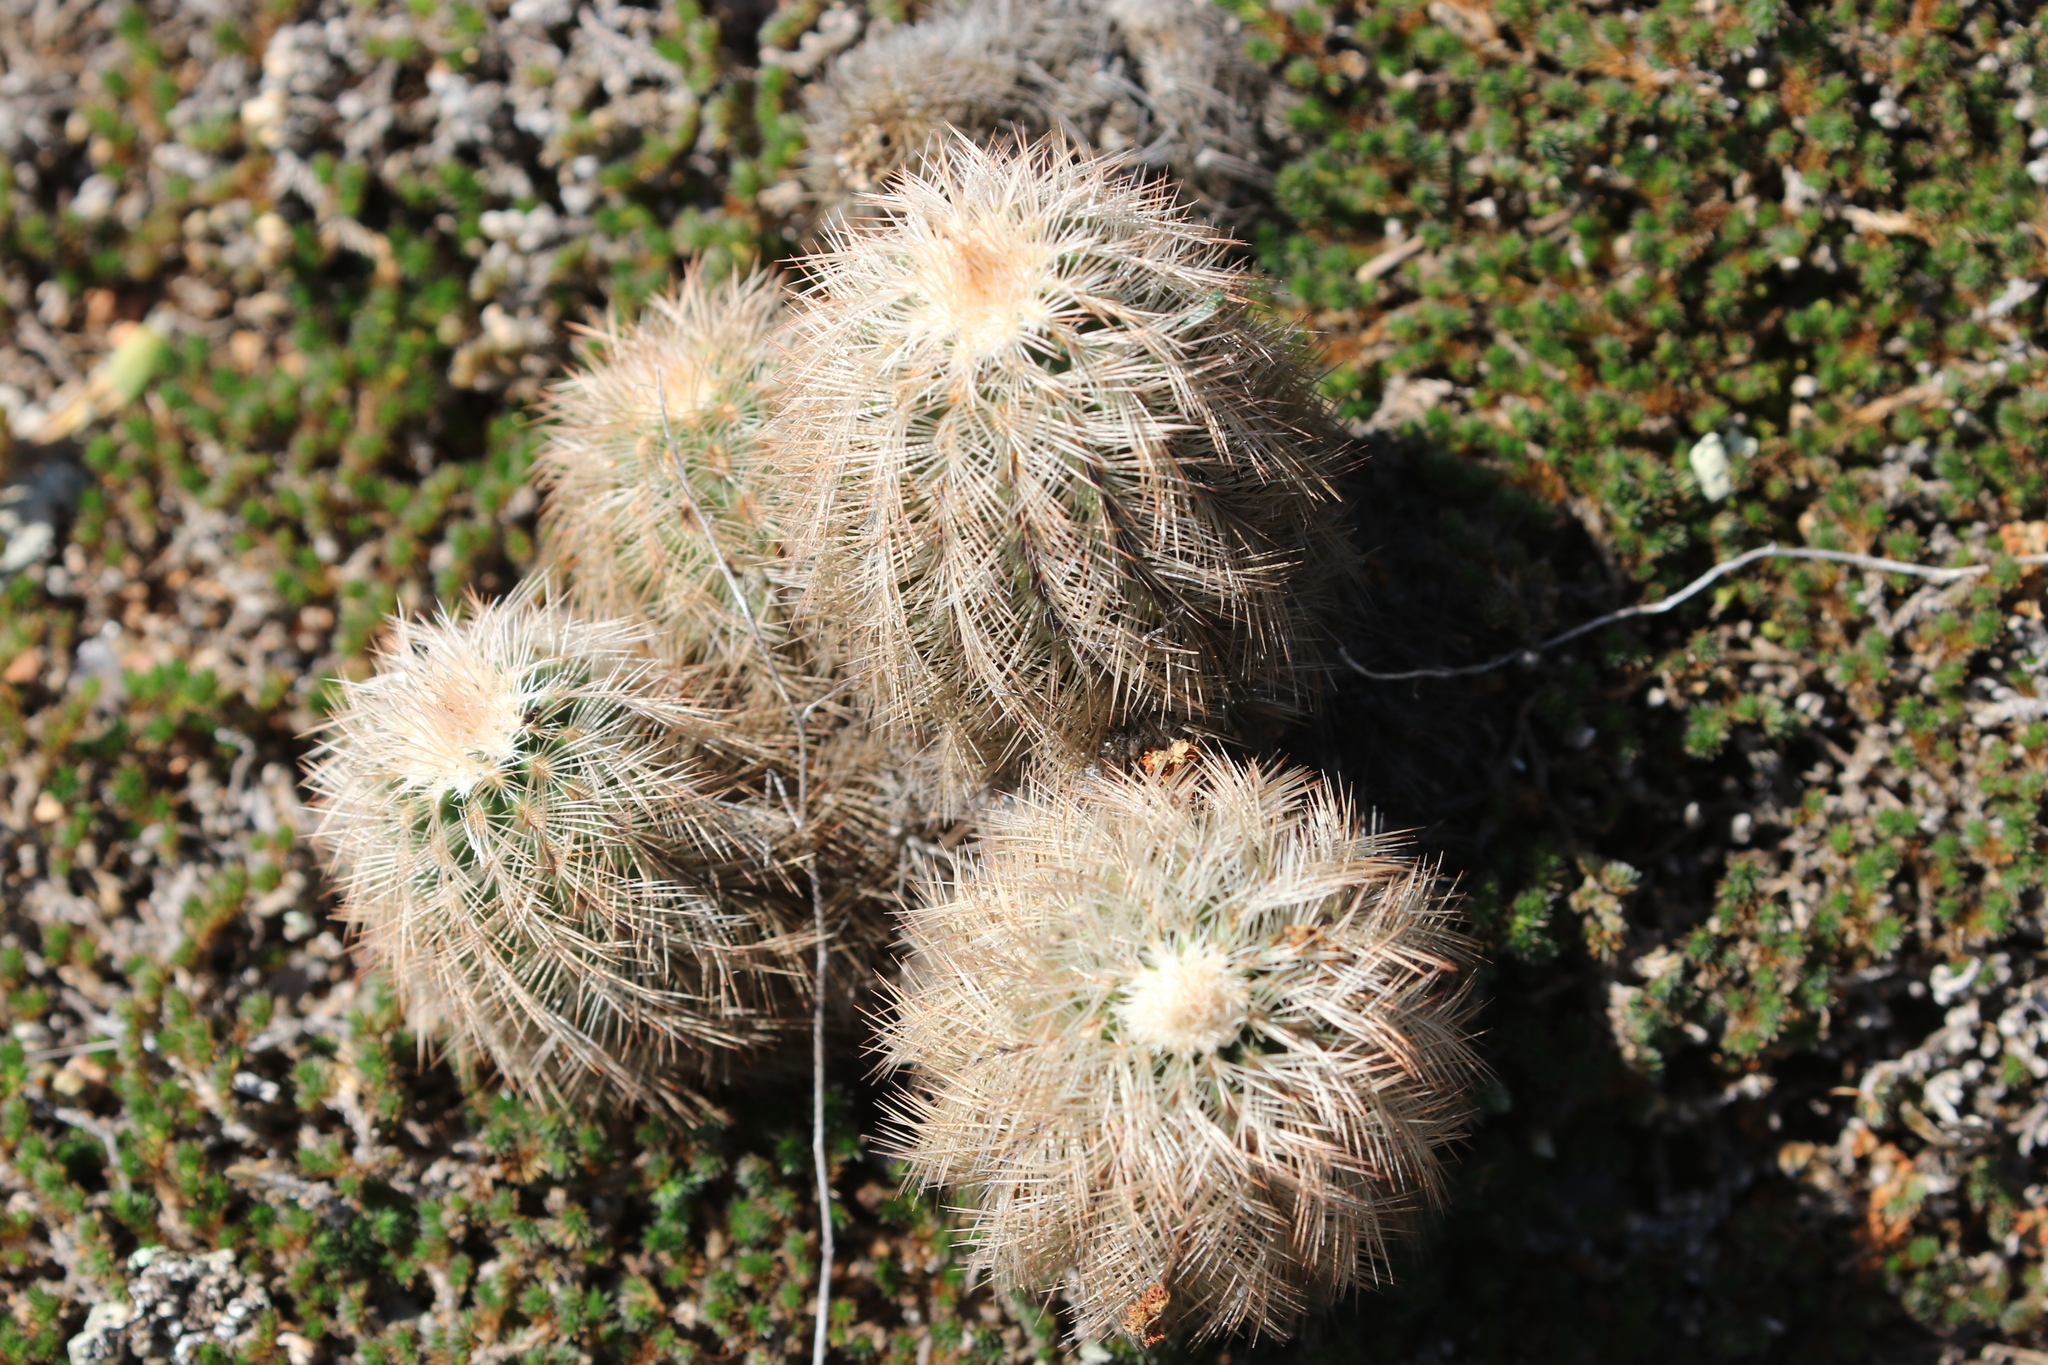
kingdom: Plantae
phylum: Tracheophyta
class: Magnoliopsida
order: Caryophyllales
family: Cactaceae
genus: Echinocereus
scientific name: Echinocereus reichenbachii
